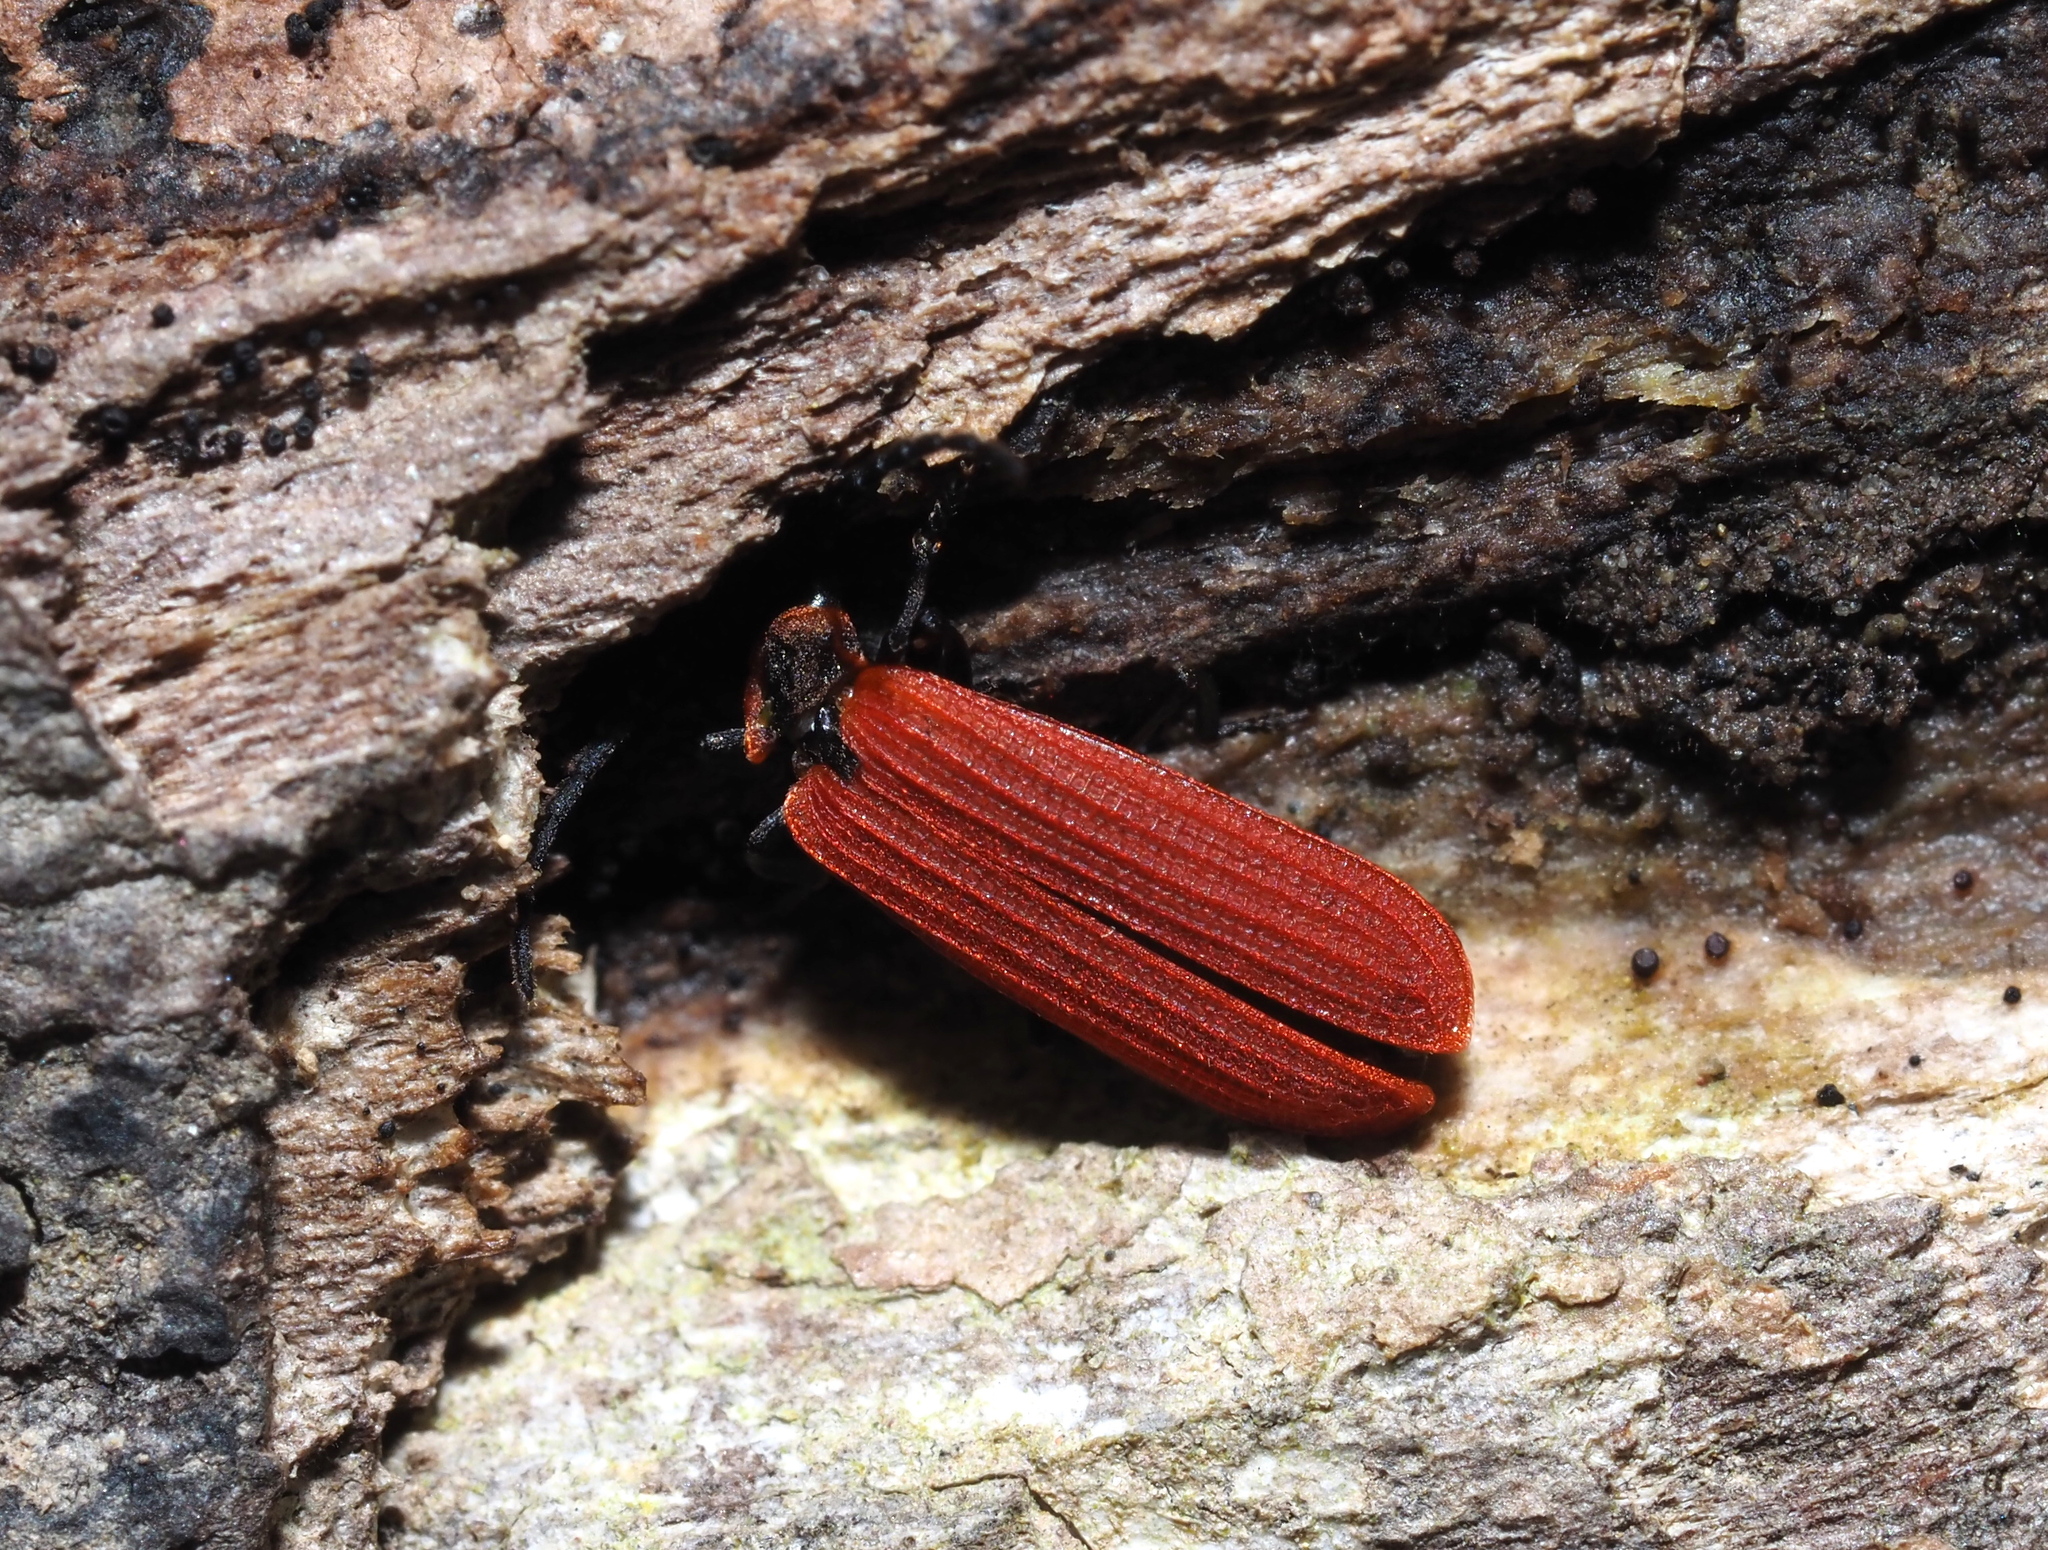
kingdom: Animalia
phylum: Arthropoda
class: Insecta
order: Coleoptera
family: Lycidae
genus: Dictyoptera
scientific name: Dictyoptera aurora
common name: Golden net-winged beetle
